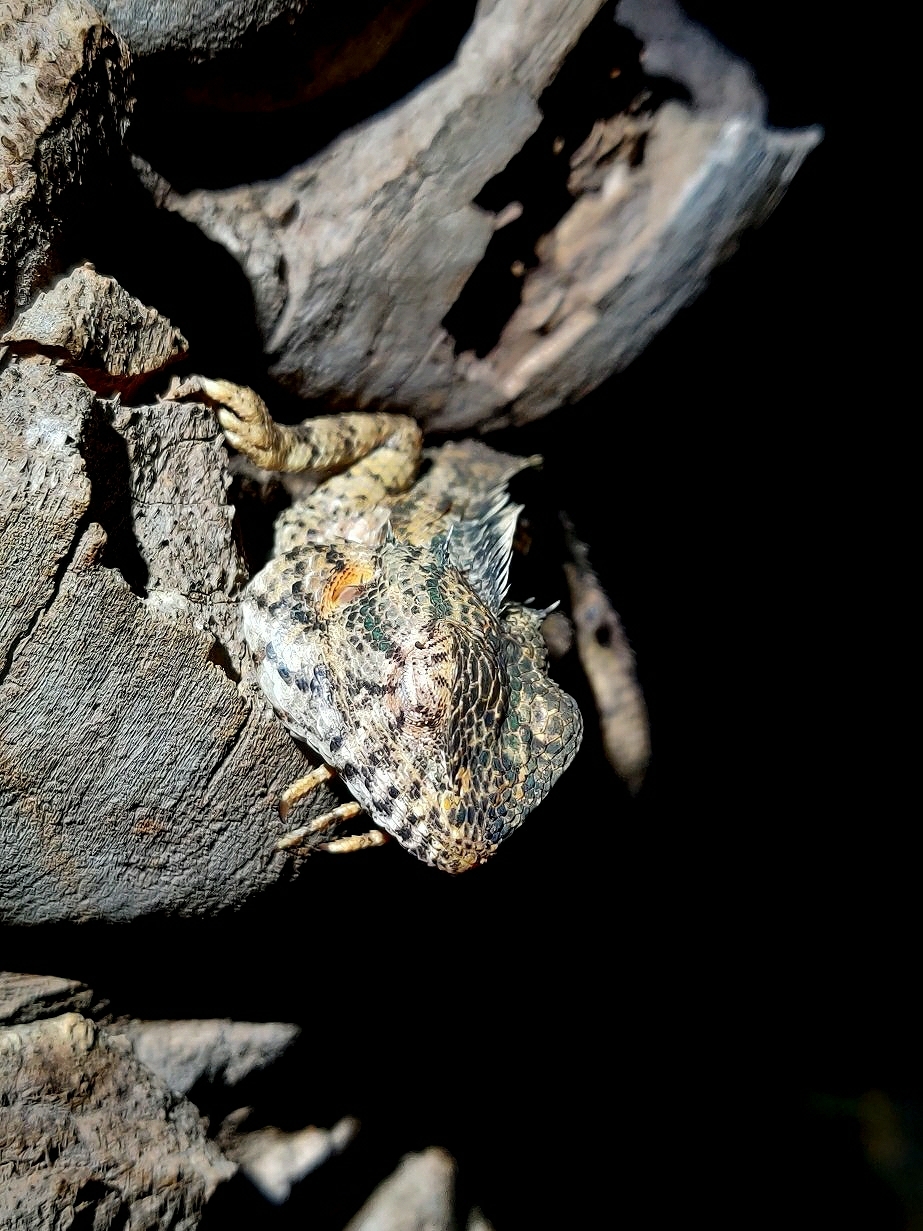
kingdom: Animalia
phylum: Chordata
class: Squamata
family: Agamidae
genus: Calotes
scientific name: Calotes versicolor
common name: Oriental garden lizard
